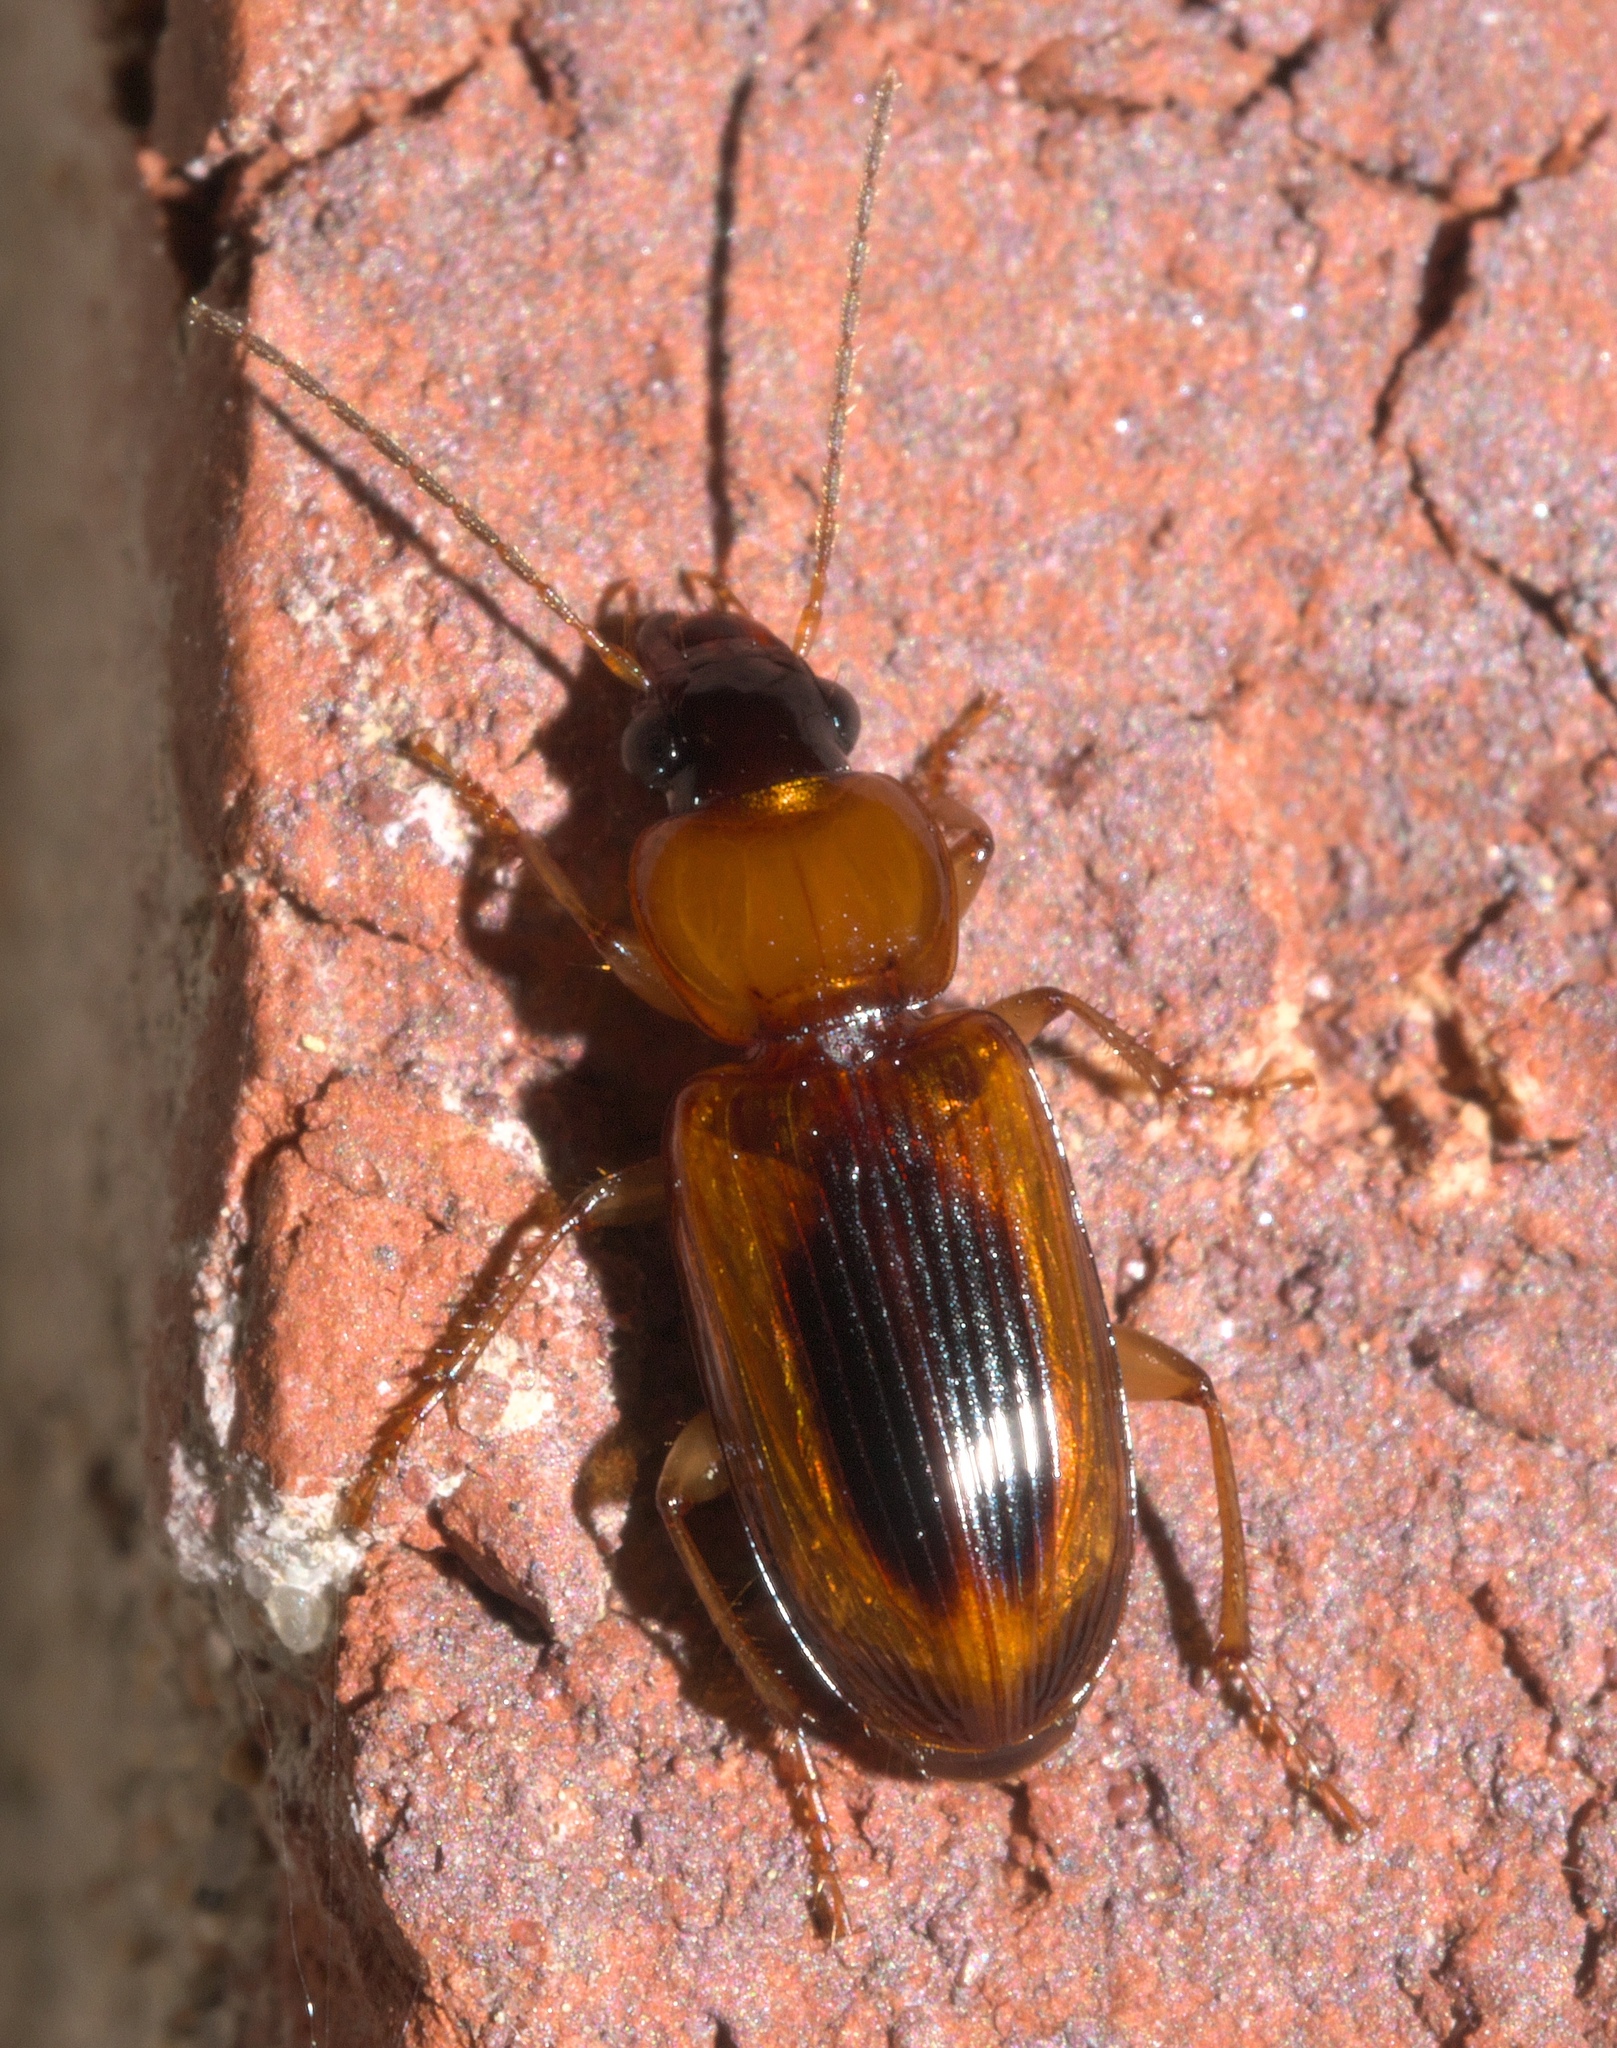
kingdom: Animalia
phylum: Arthropoda
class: Insecta
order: Coleoptera
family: Carabidae
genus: Stenolophus
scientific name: Stenolophus dissimilis
